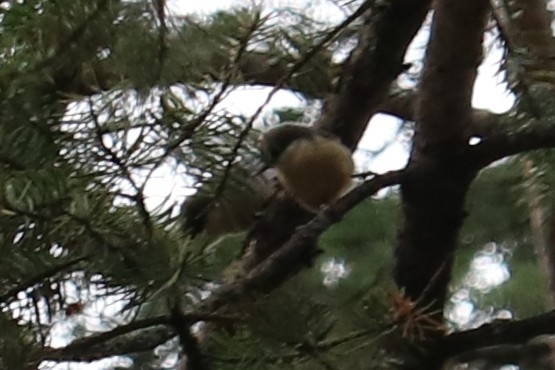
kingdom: Animalia
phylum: Chordata
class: Aves
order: Passeriformes
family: Sittidae
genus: Sitta
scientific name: Sitta pygmaea
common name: Pygmy nuthatch
